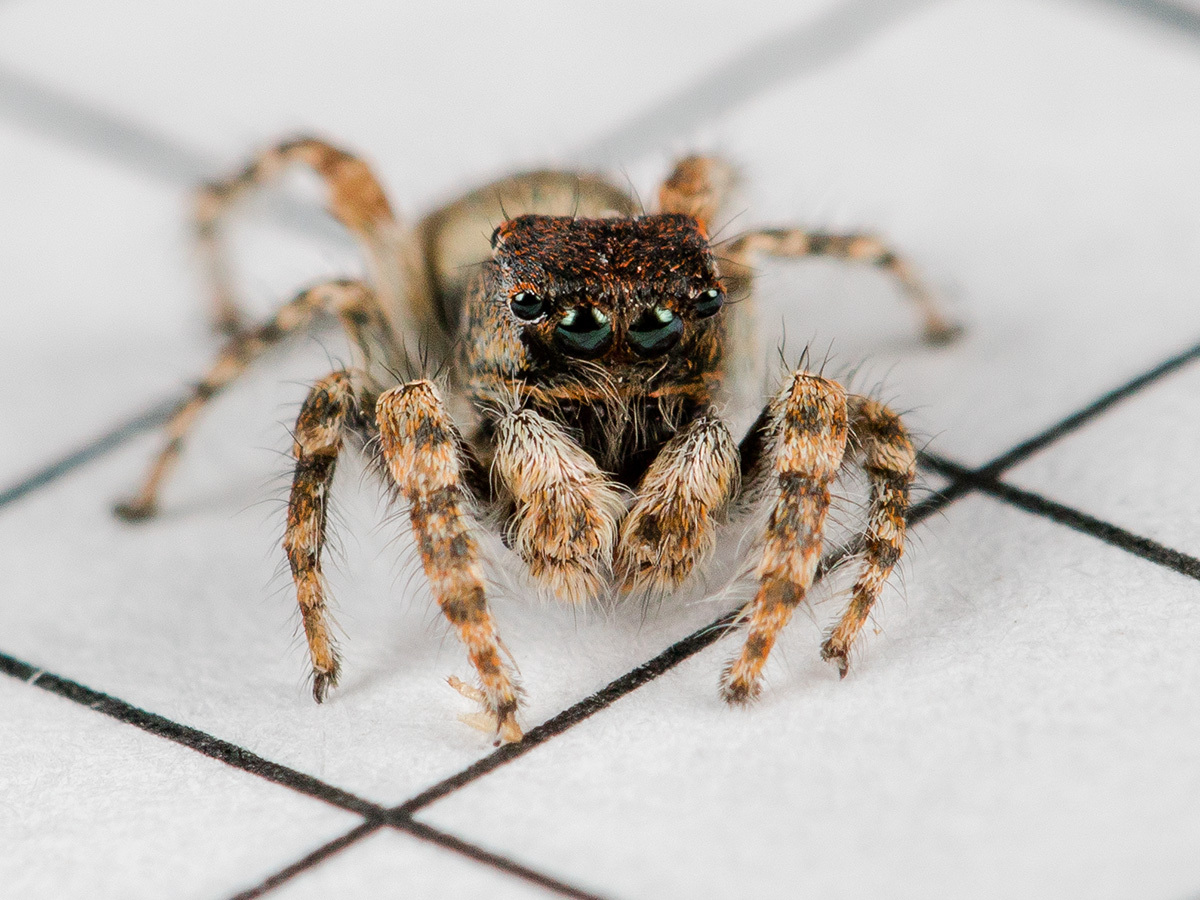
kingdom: Animalia
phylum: Arthropoda
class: Arachnida
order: Araneae
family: Salticidae
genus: Yllenus
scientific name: Yllenus zyuzini
